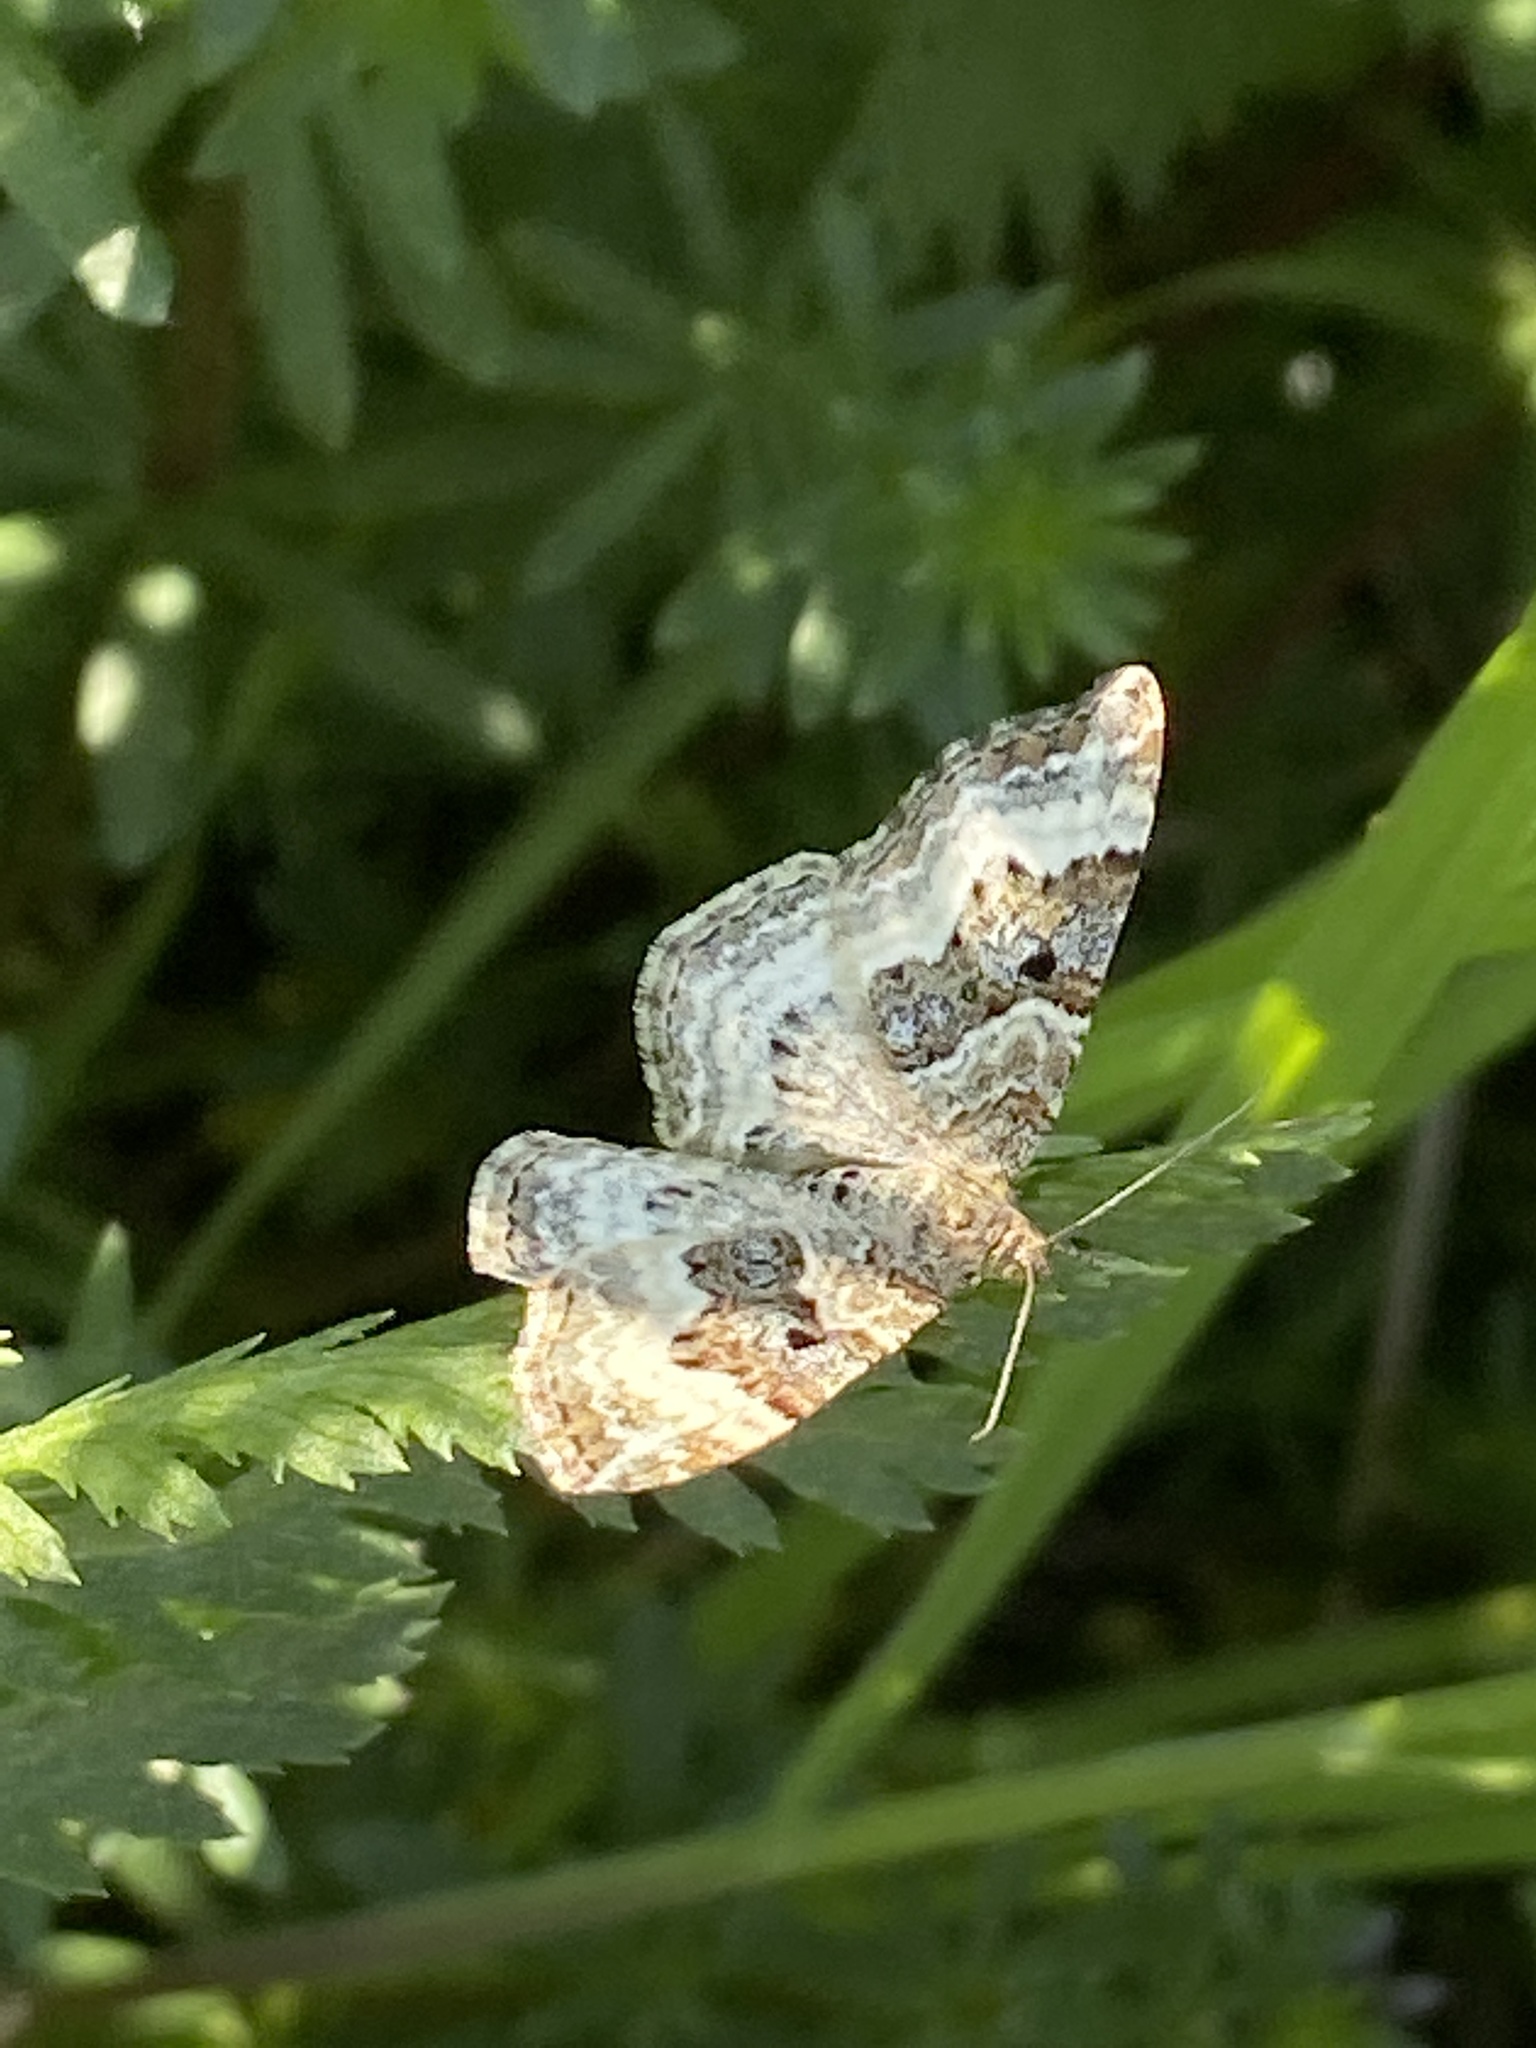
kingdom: Animalia
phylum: Arthropoda
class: Insecta
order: Lepidoptera
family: Geometridae
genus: Epirrhoe
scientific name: Epirrhoe alternata
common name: Common carpet
